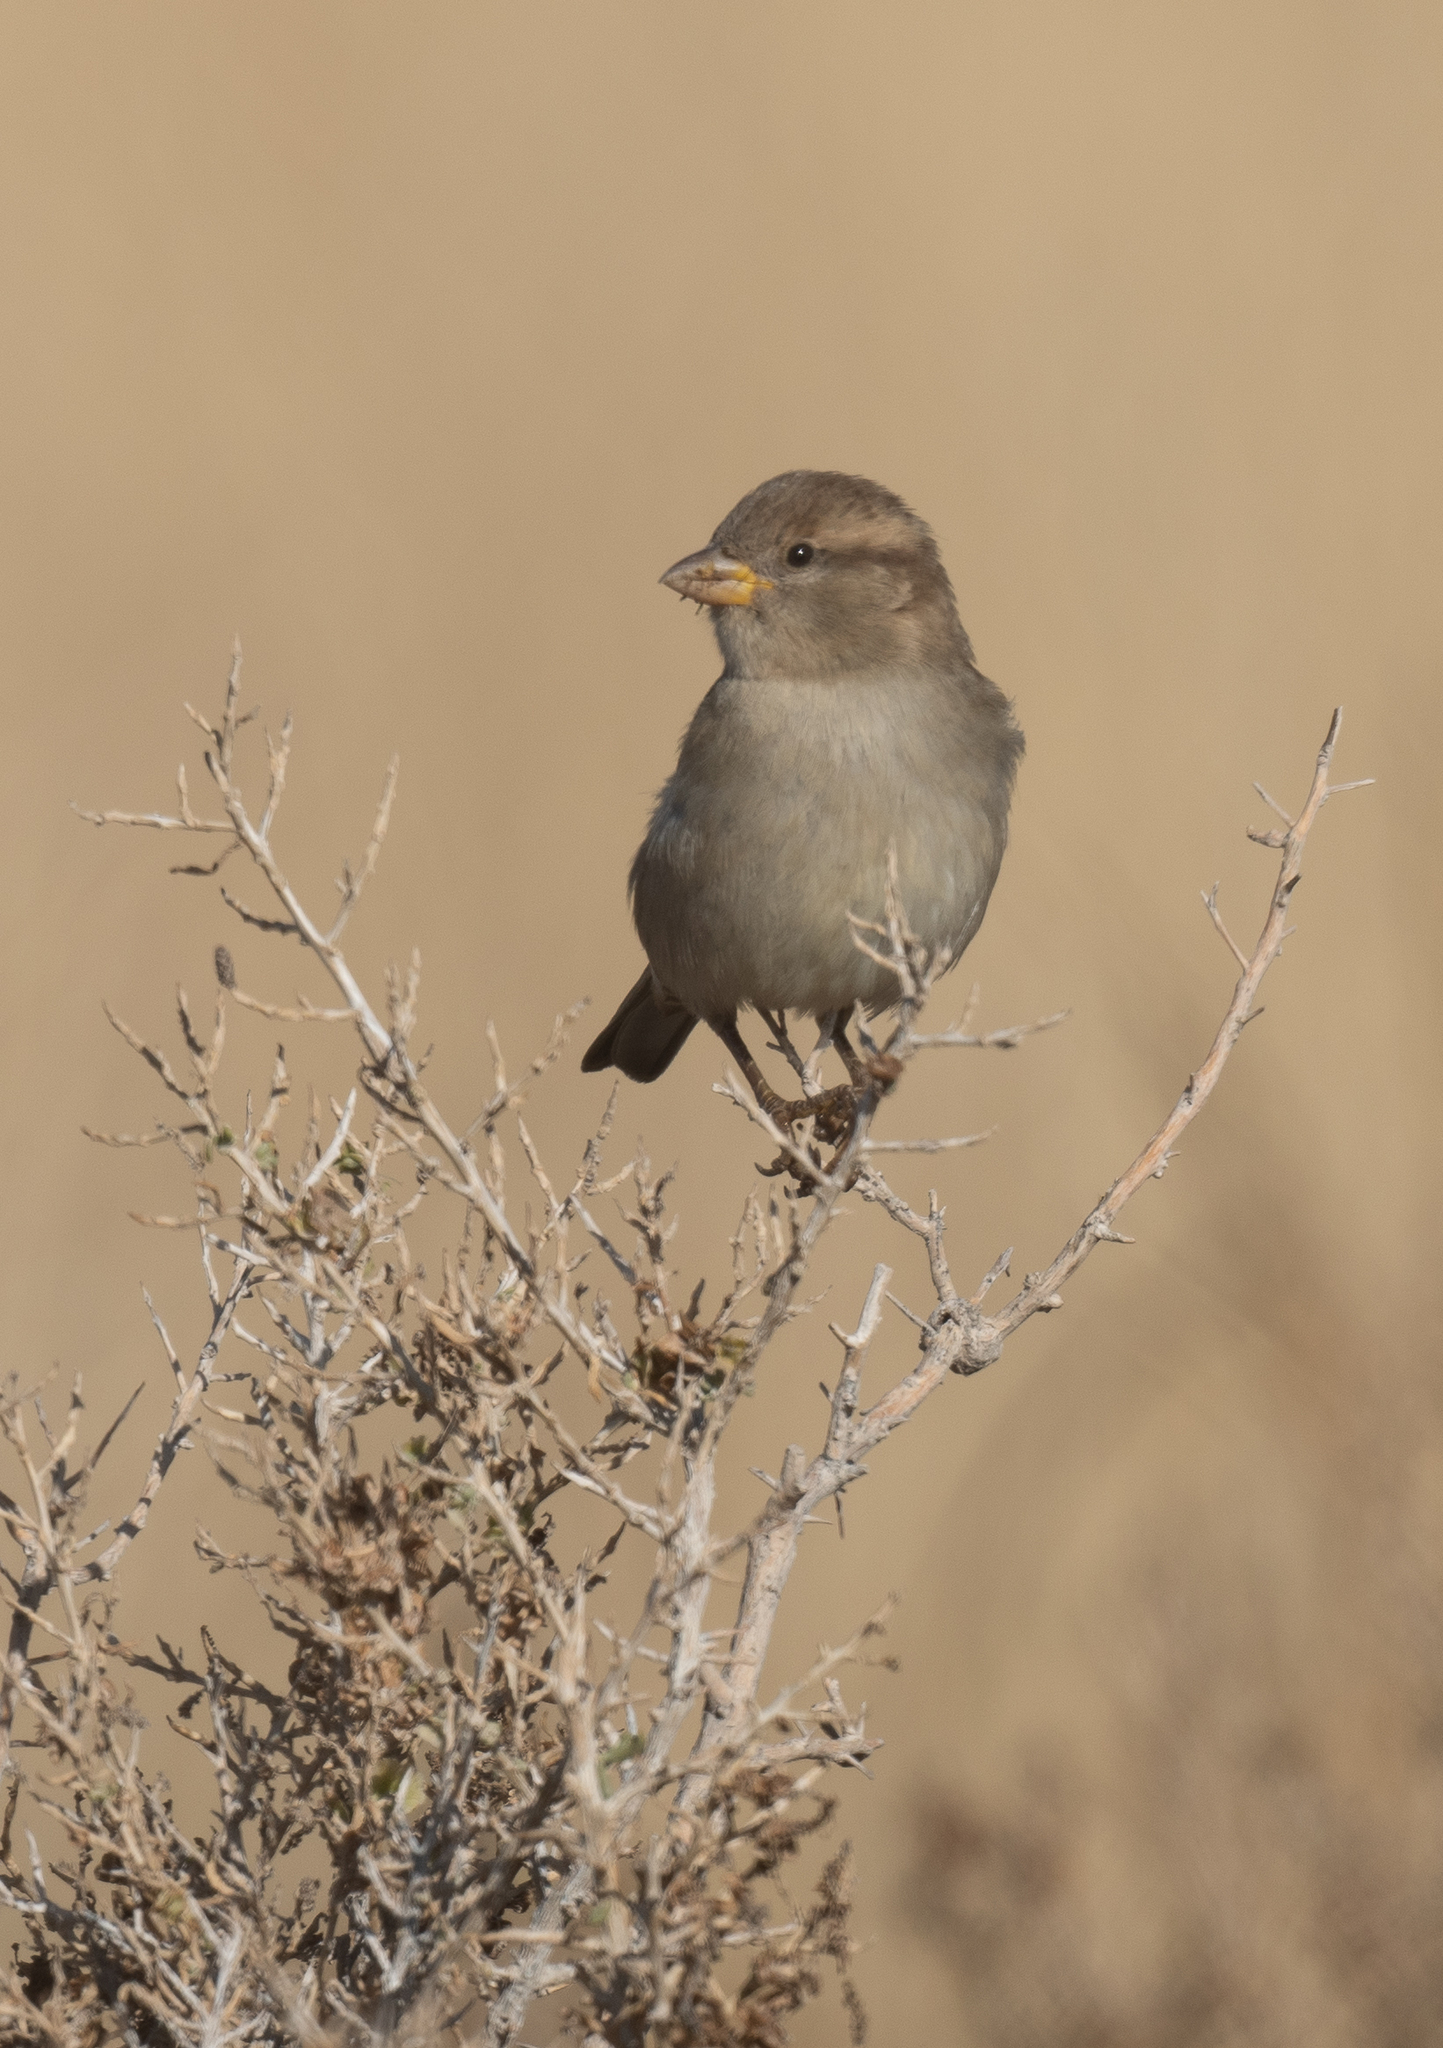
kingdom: Animalia
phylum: Chordata
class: Aves
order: Passeriformes
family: Passeridae
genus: Passer
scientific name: Passer domesticus
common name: House sparrow
